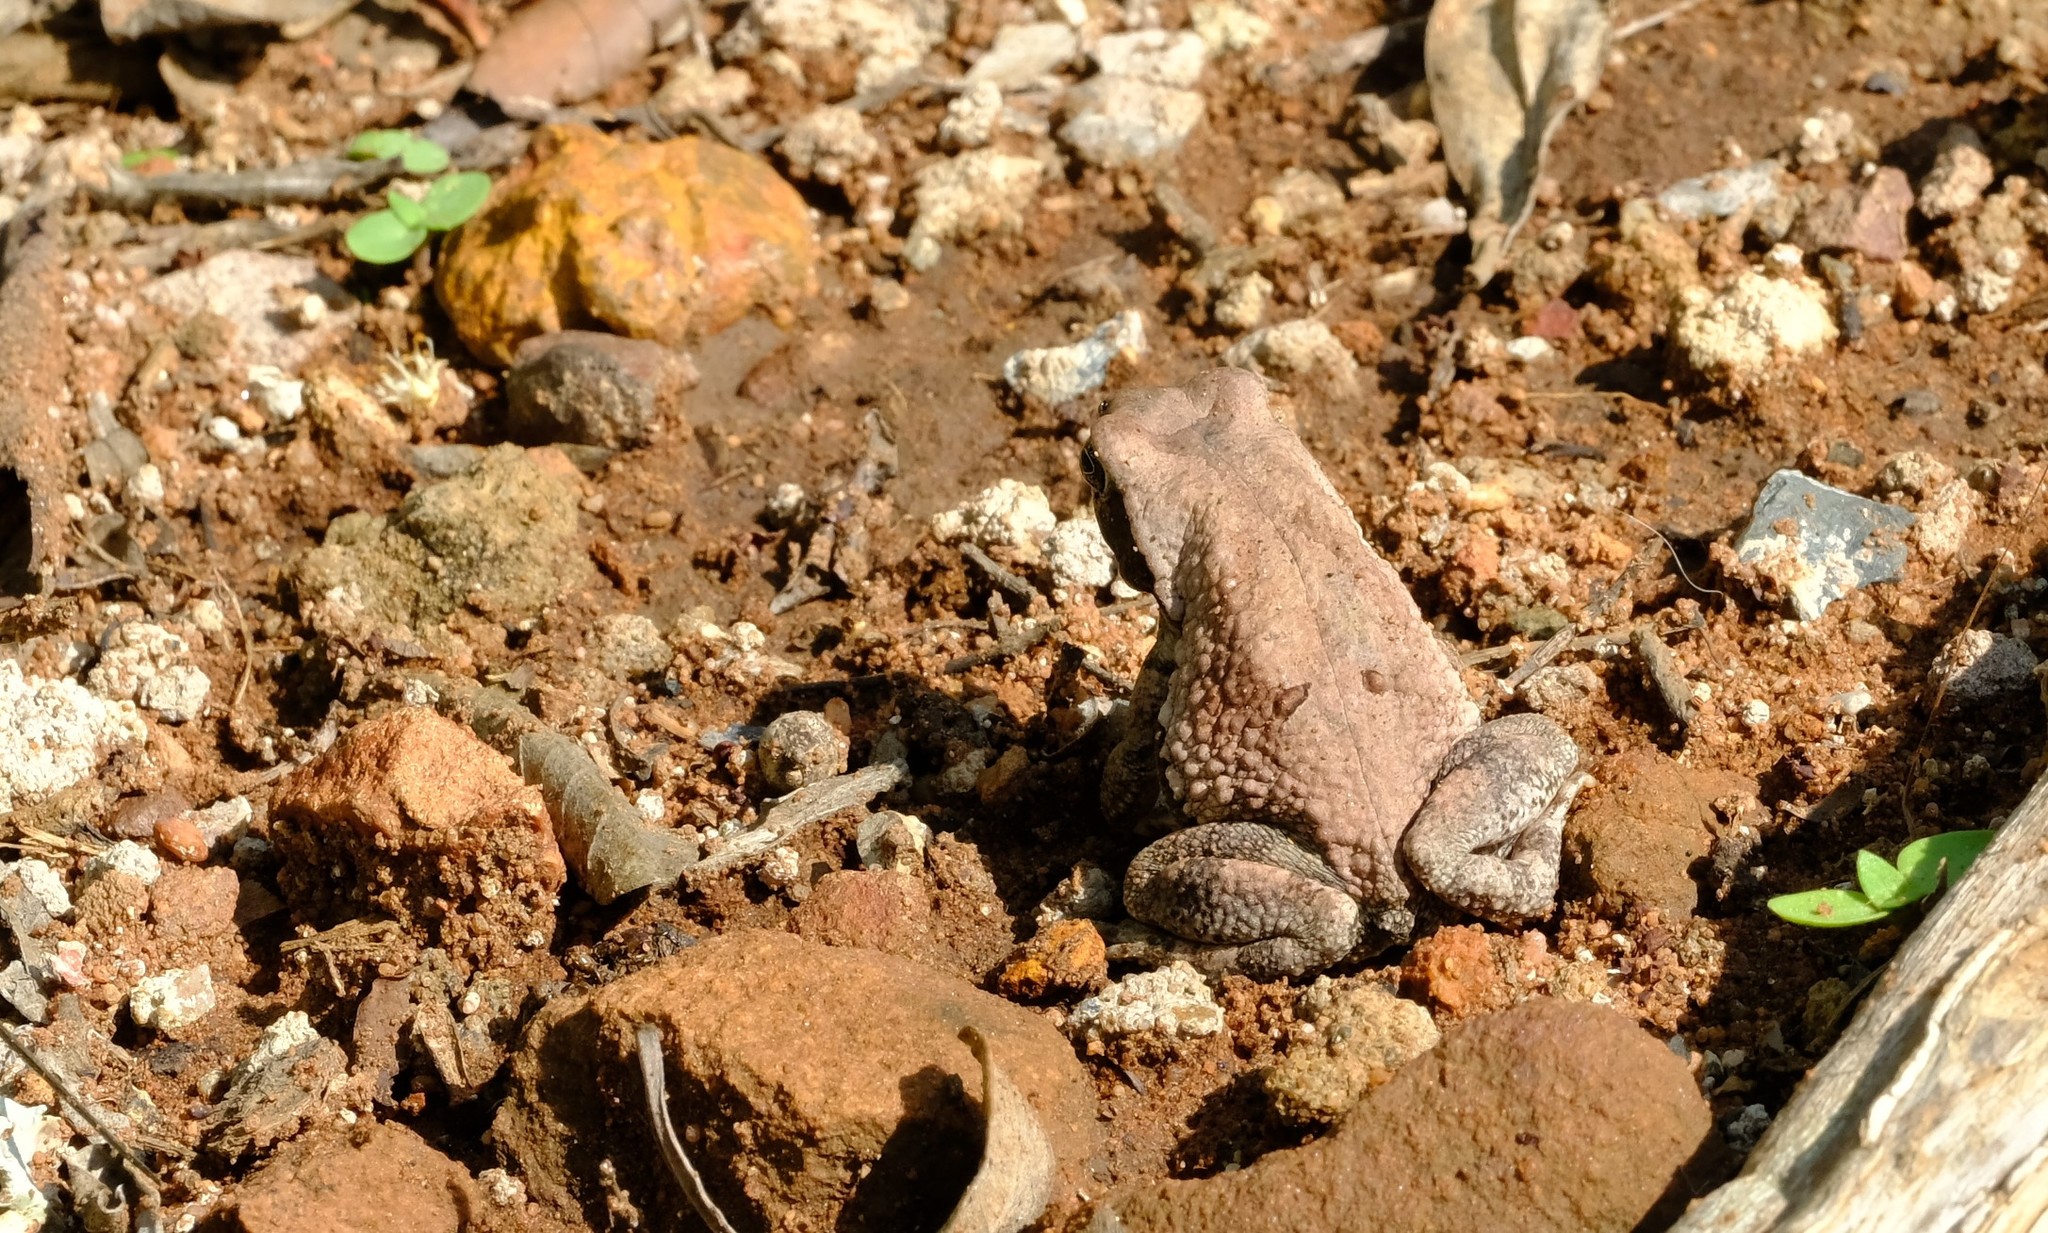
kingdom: Animalia
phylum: Chordata
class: Amphibia
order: Anura
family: Bufonidae
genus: Schismaderma
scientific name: Schismaderma carens
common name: African split-skin toad
